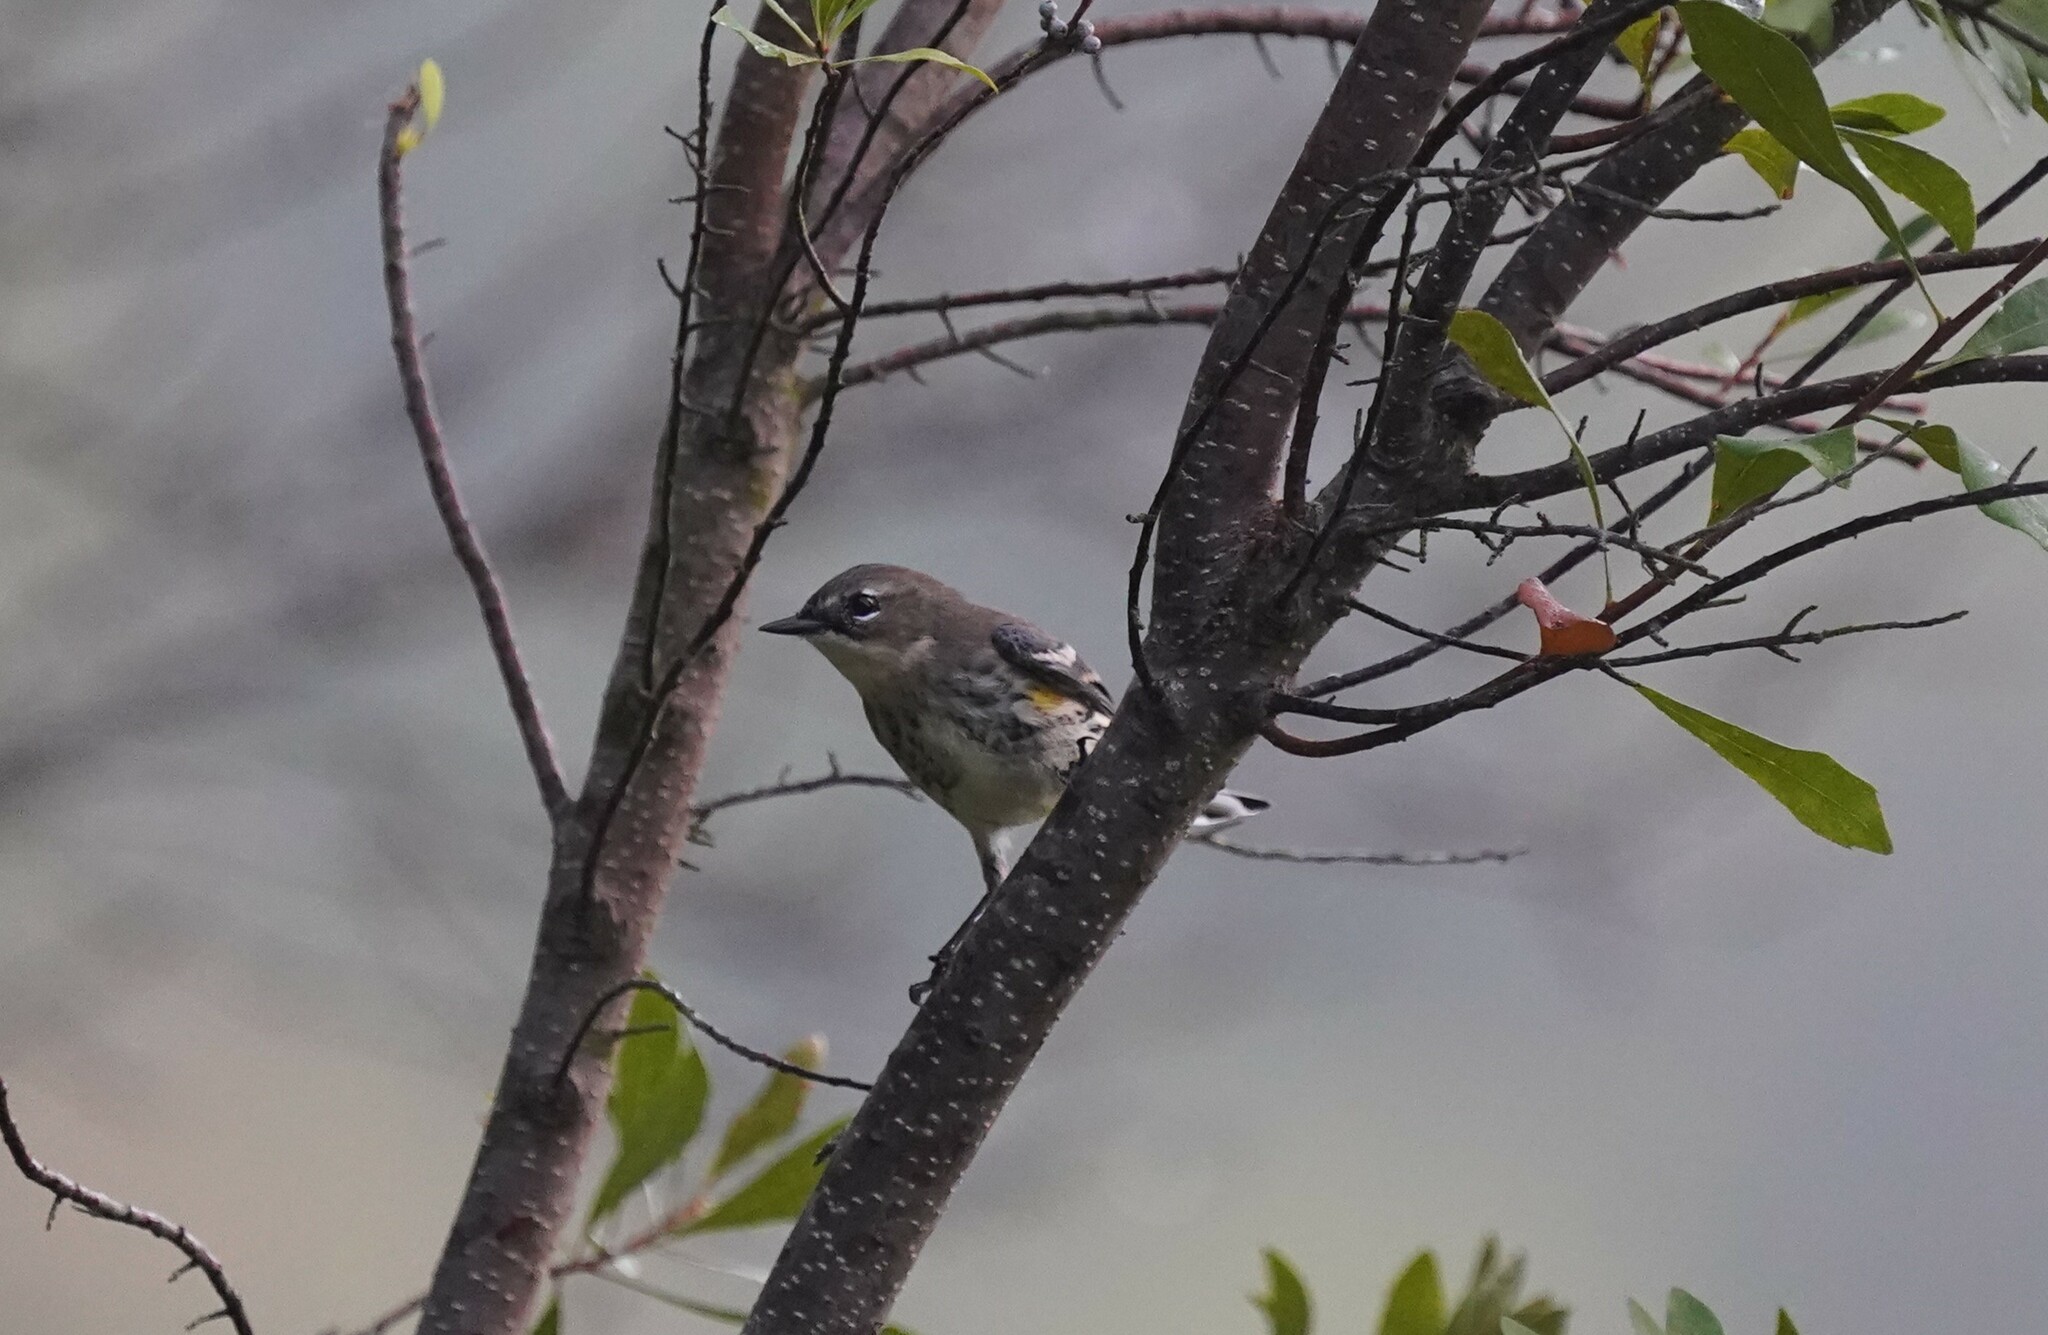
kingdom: Animalia
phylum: Chordata
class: Aves
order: Passeriformes
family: Parulidae
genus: Setophaga
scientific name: Setophaga coronata
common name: Myrtle warbler
